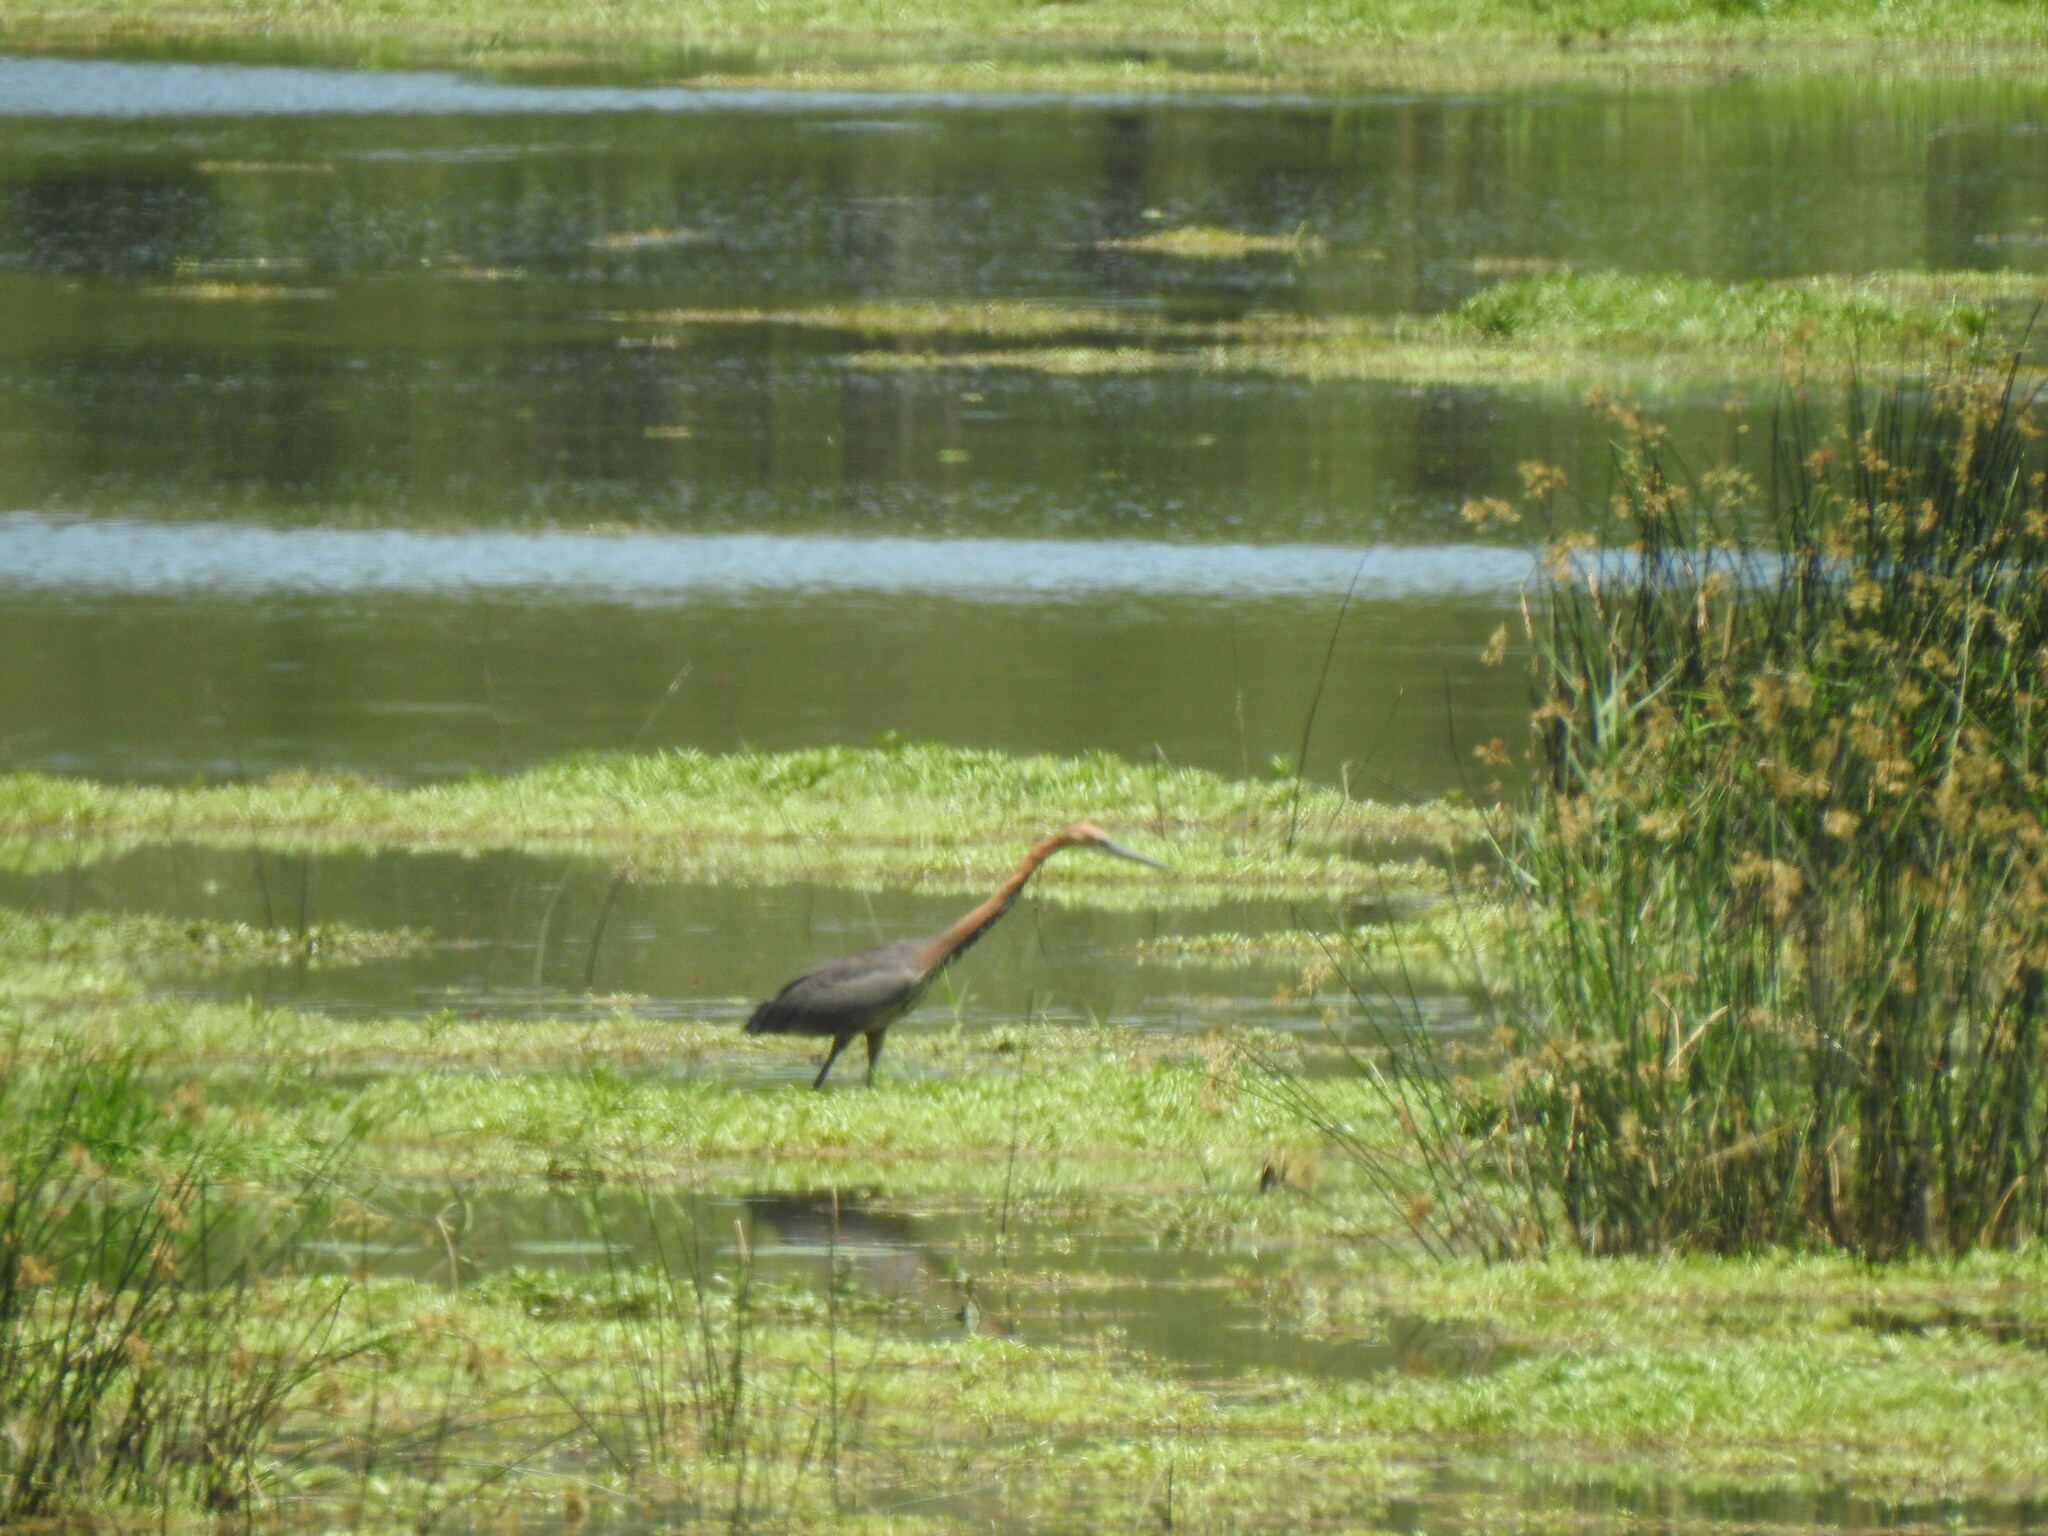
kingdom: Animalia
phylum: Chordata
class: Aves
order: Pelecaniformes
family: Ardeidae
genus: Ardea
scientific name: Ardea goliath
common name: Goliath heron
